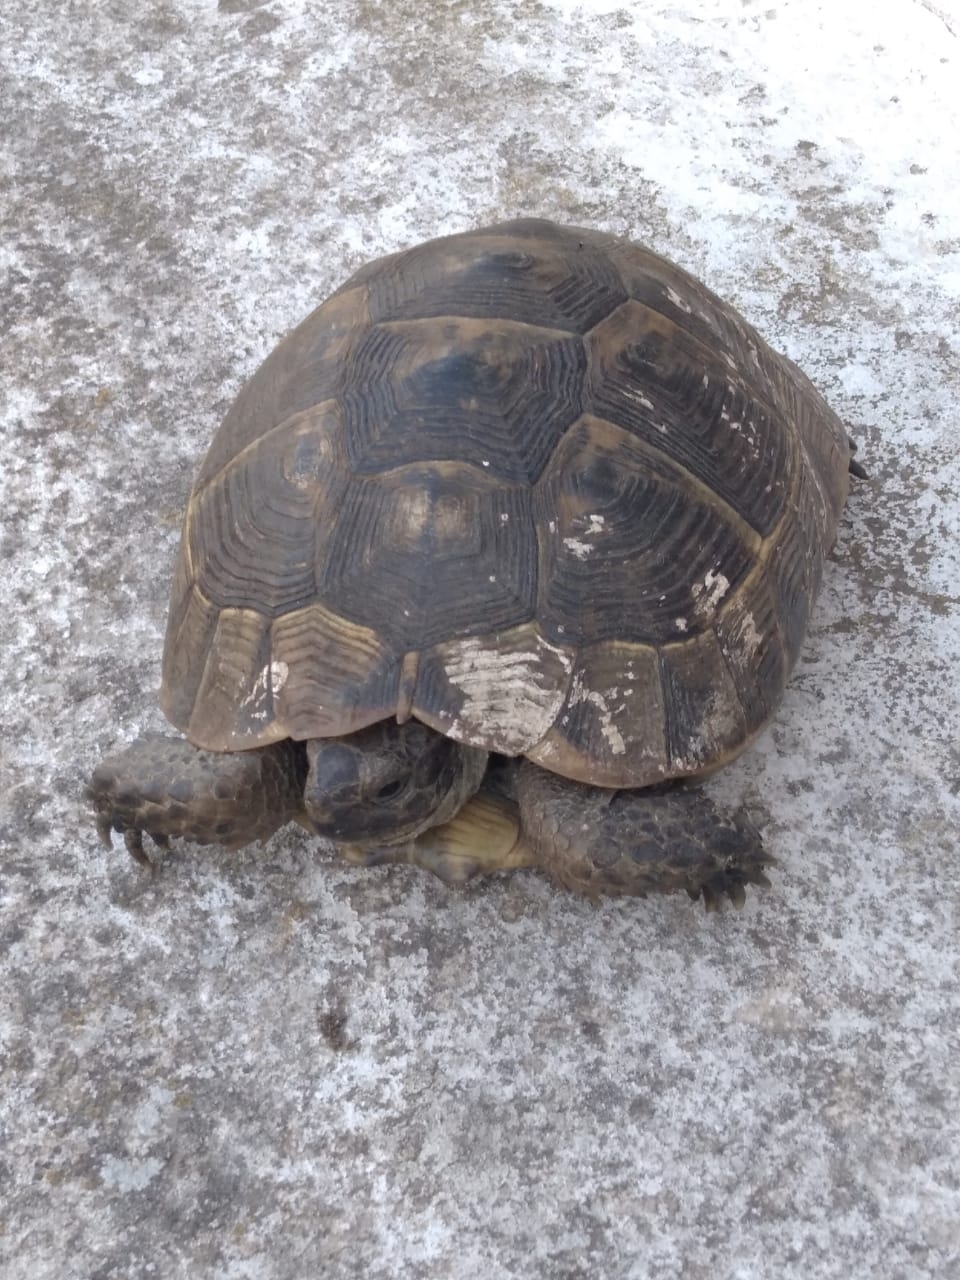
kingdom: Animalia
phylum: Chordata
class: Testudines
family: Testudinidae
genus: Testudo
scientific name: Testudo graeca
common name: Common tortoise
